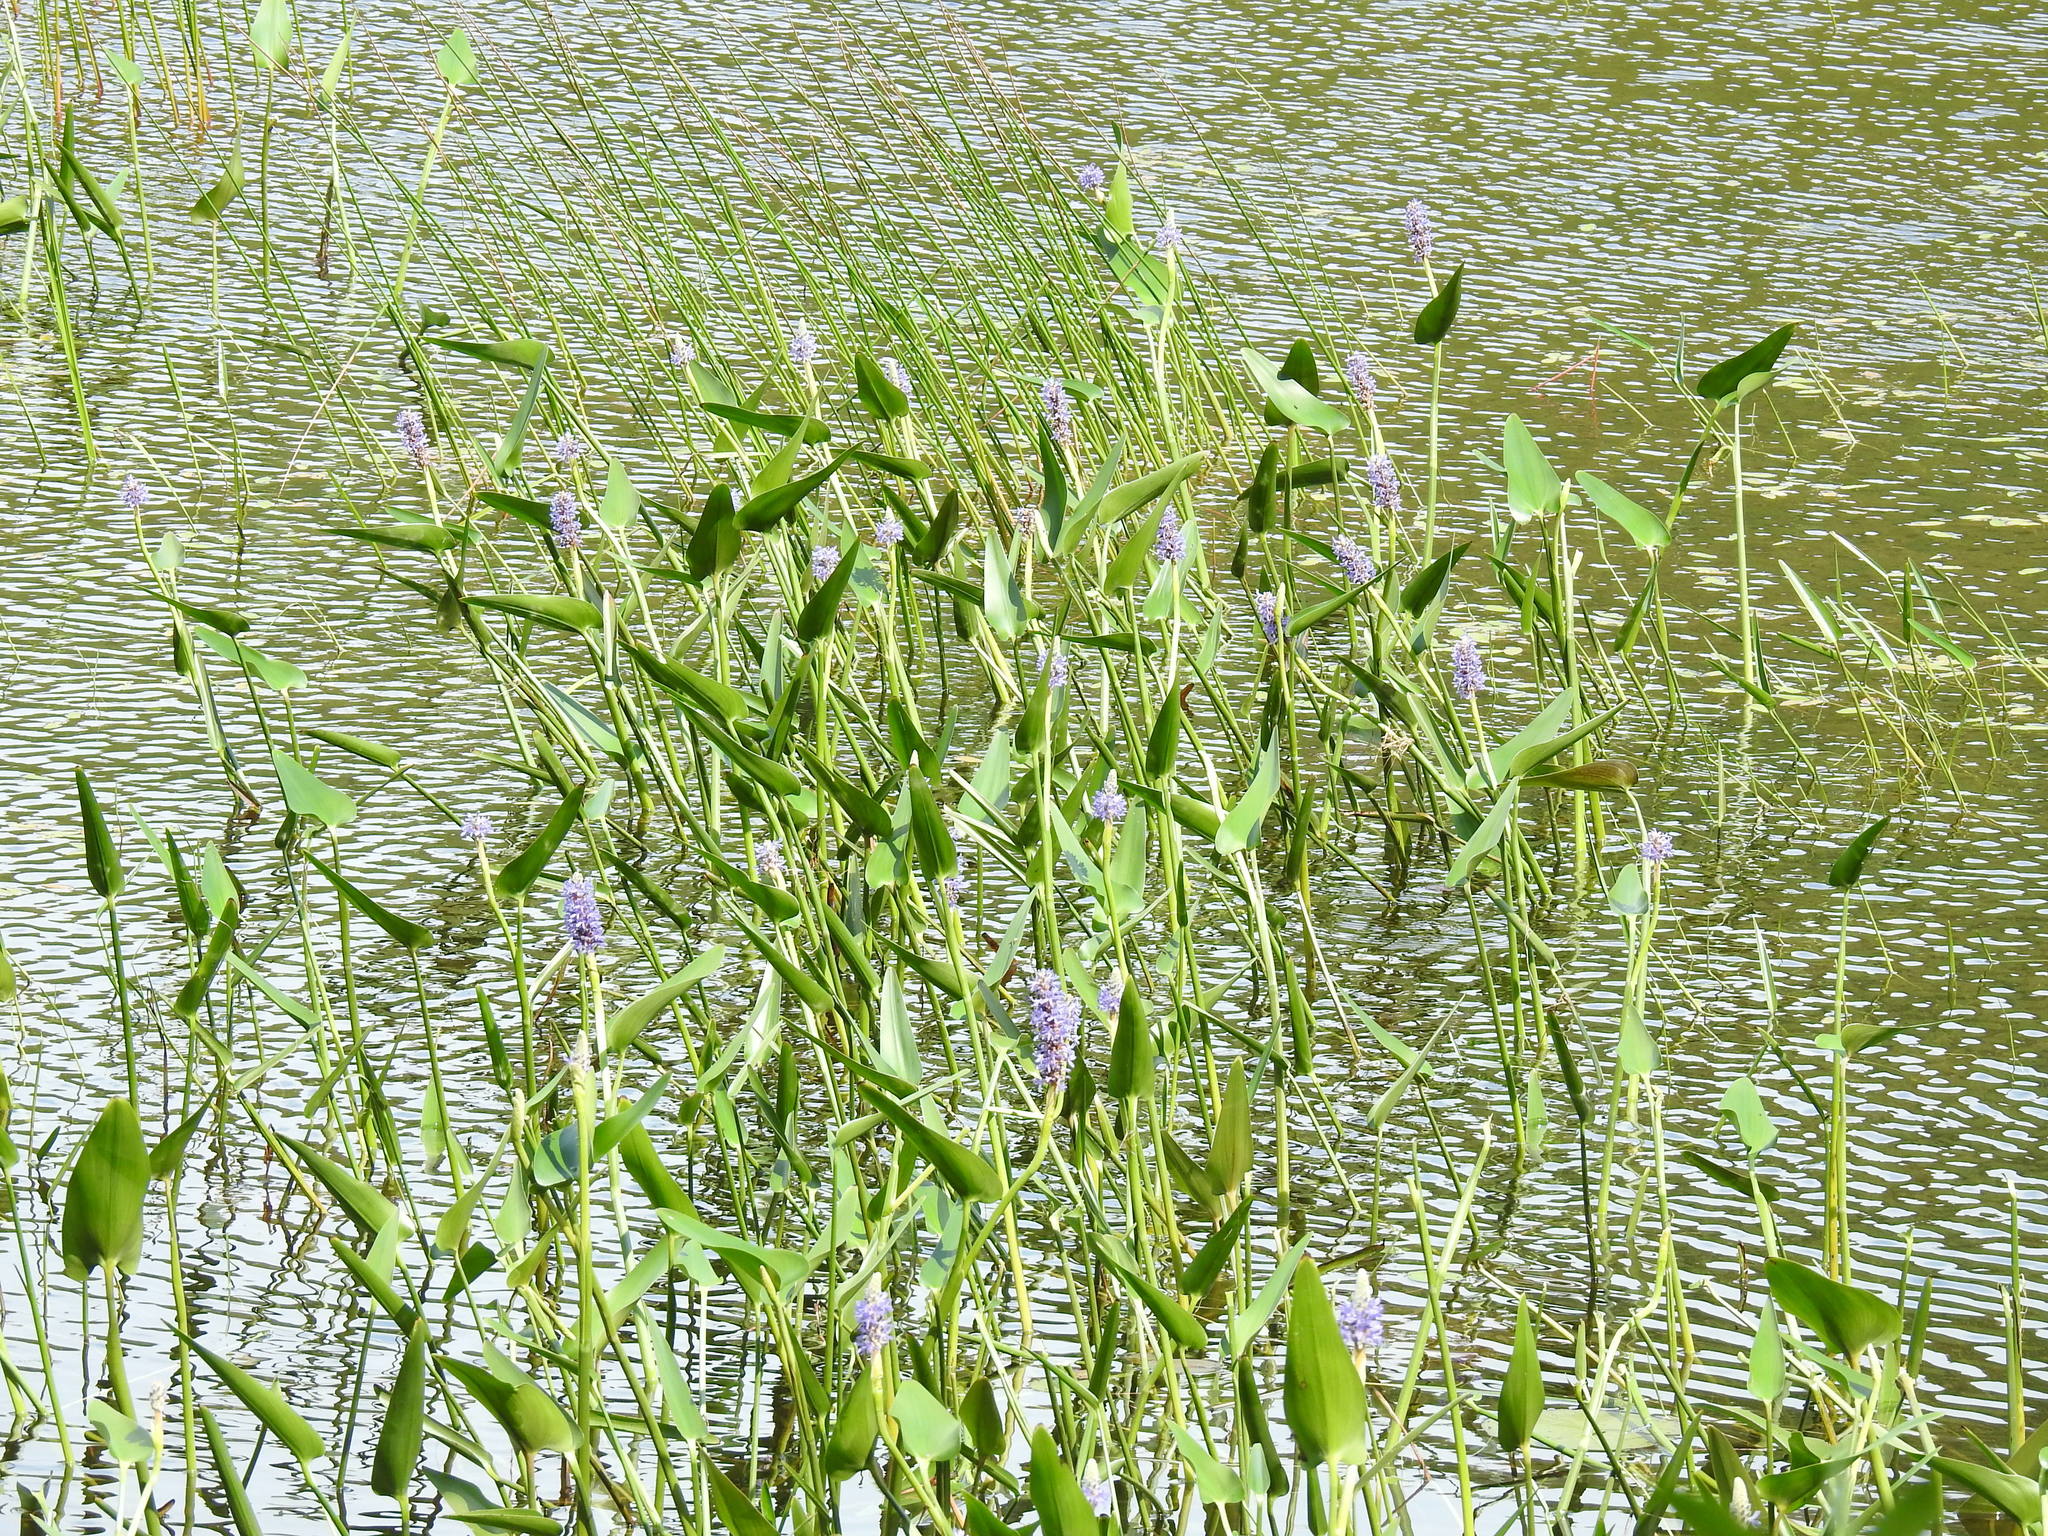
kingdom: Plantae
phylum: Tracheophyta
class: Liliopsida
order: Commelinales
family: Pontederiaceae
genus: Pontederia
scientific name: Pontederia cordata
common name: Pickerelweed
